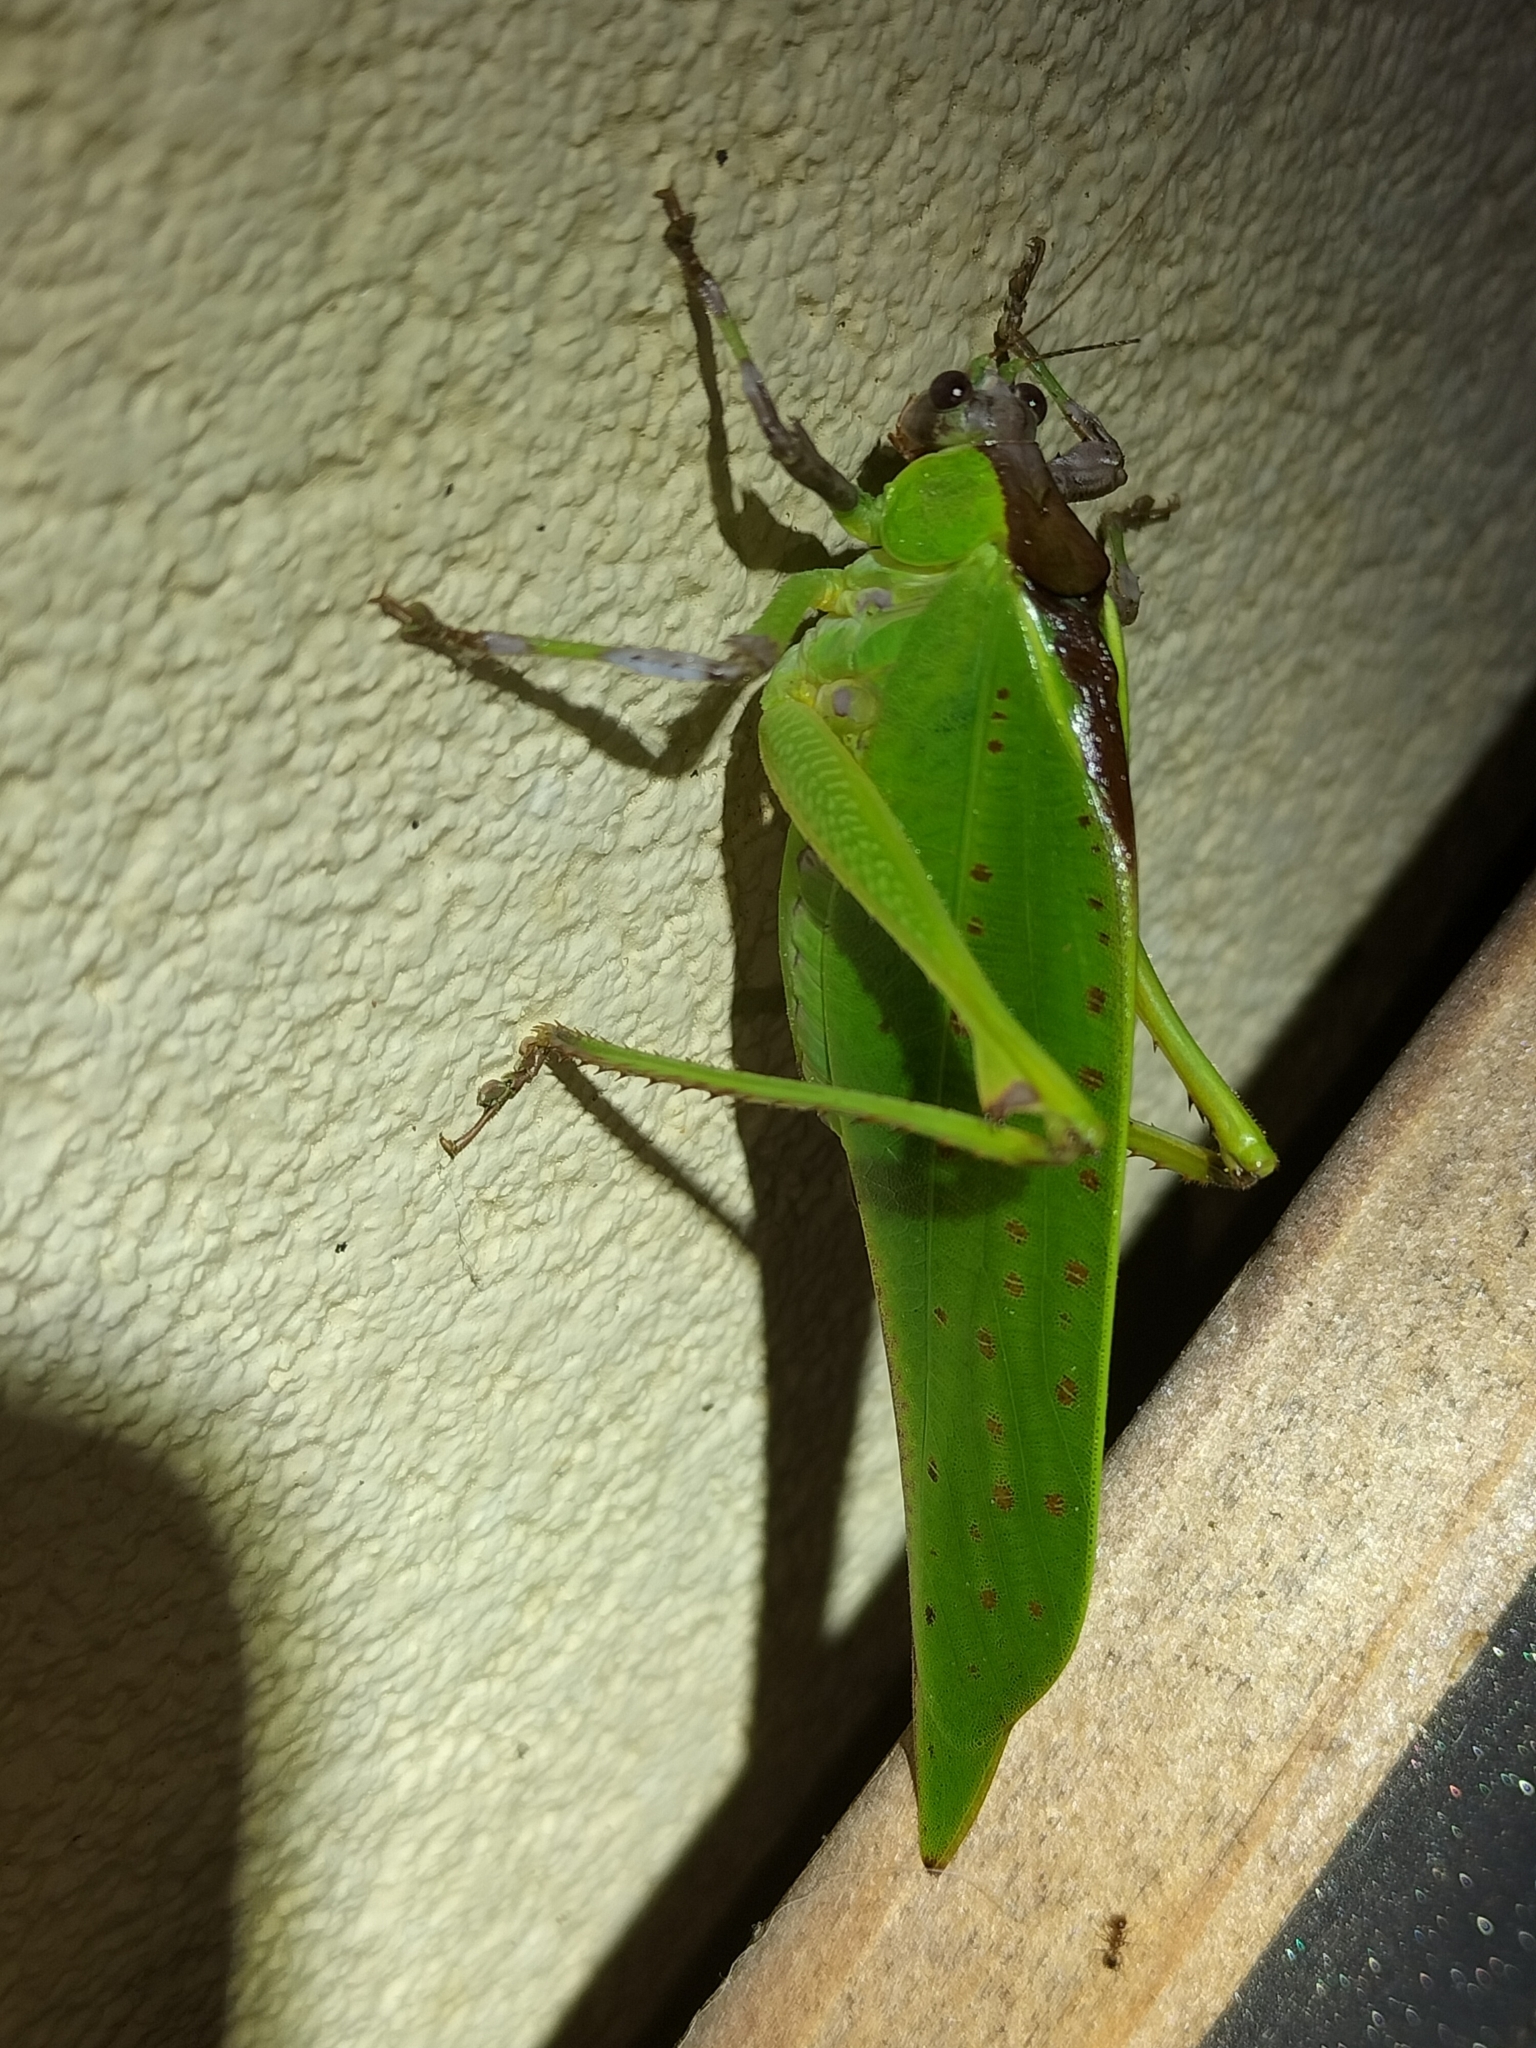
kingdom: Animalia
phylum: Arthropoda
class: Insecta
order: Orthoptera
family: Tettigoniidae
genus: Ephippitytha
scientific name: Ephippitytha kuranda
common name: Kuranda spotted katydid
